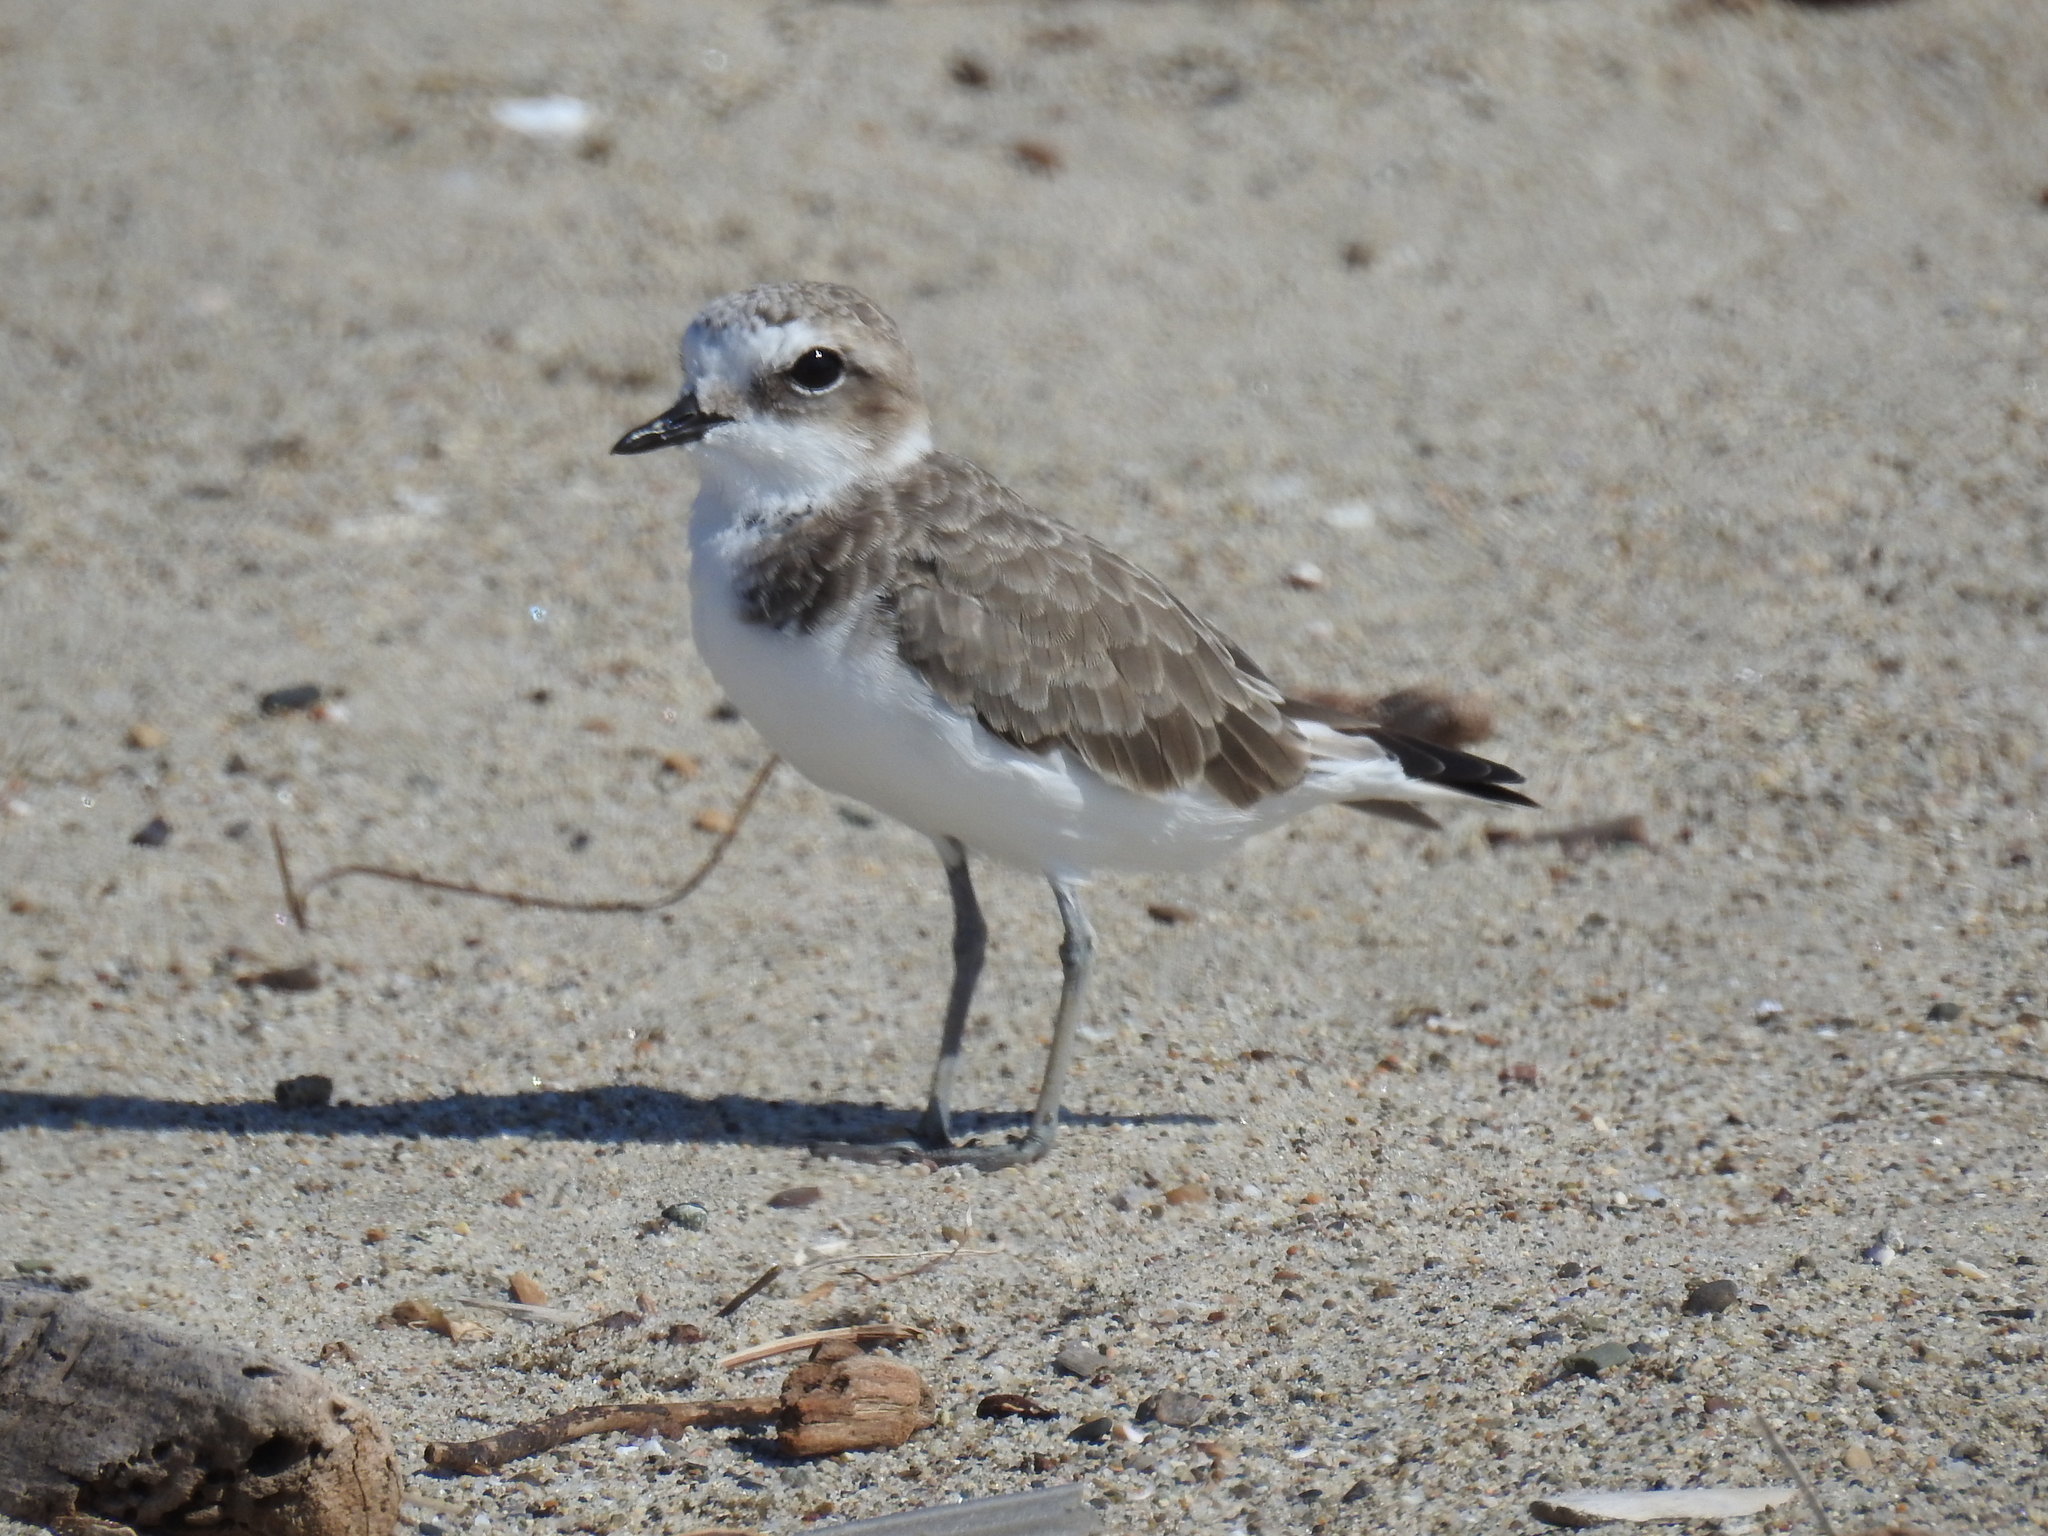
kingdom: Animalia
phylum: Chordata
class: Aves
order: Charadriiformes
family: Charadriidae
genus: Anarhynchus
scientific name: Anarhynchus
